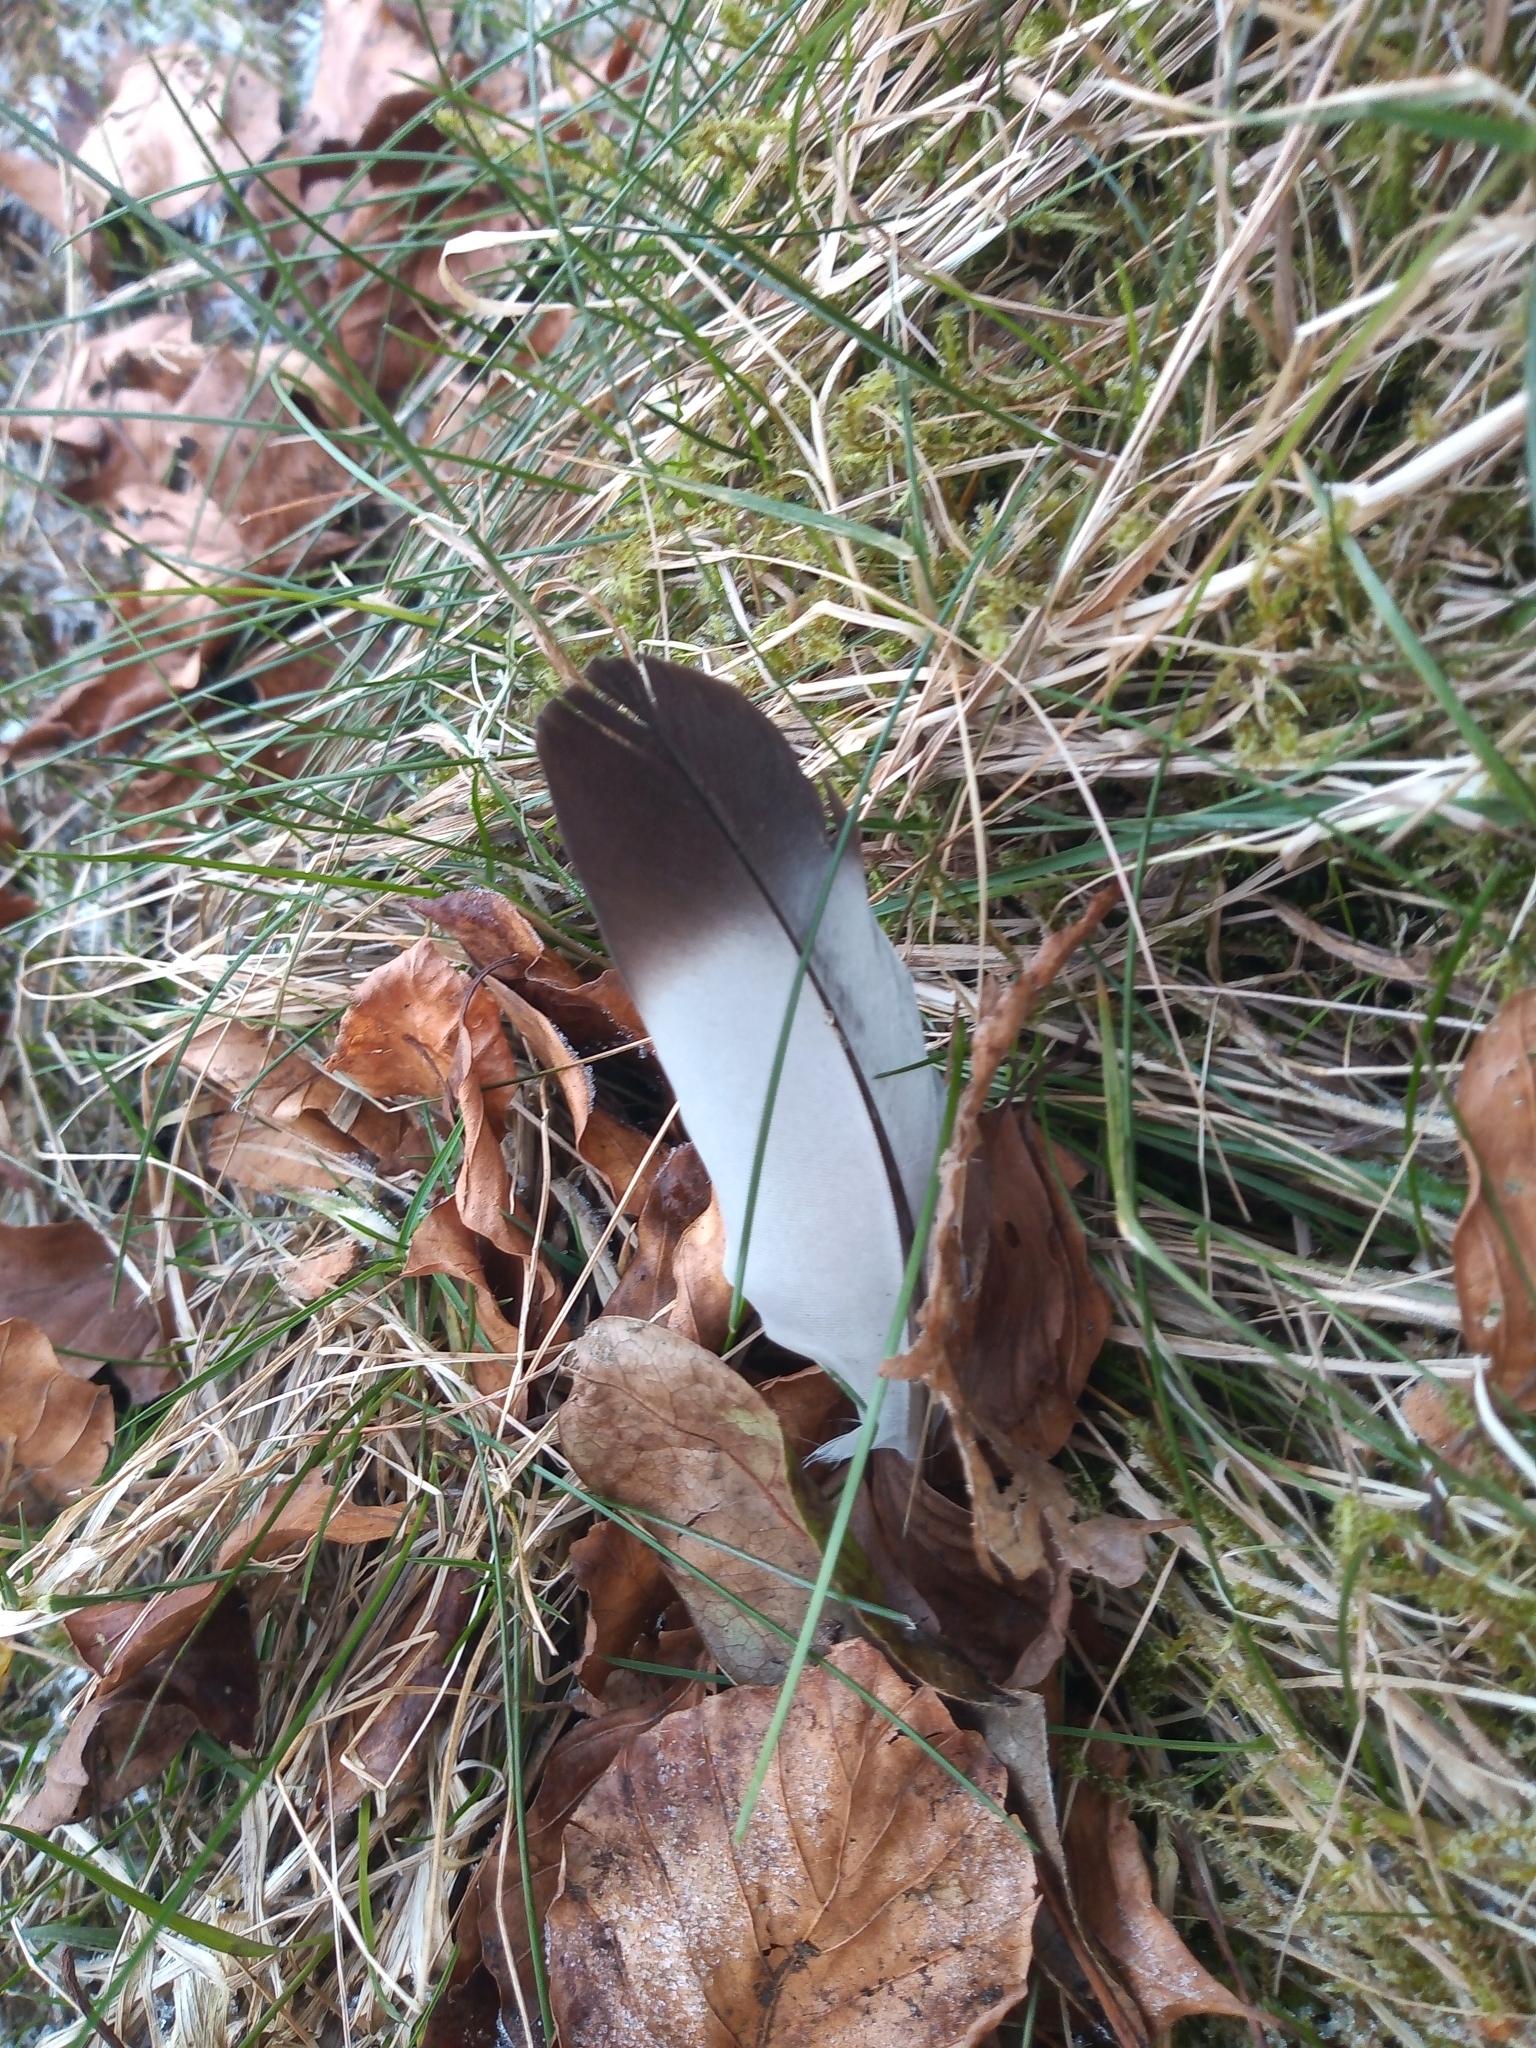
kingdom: Animalia
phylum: Chordata
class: Aves
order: Columbiformes
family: Columbidae
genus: Columba
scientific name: Columba livia
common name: Rock pigeon
